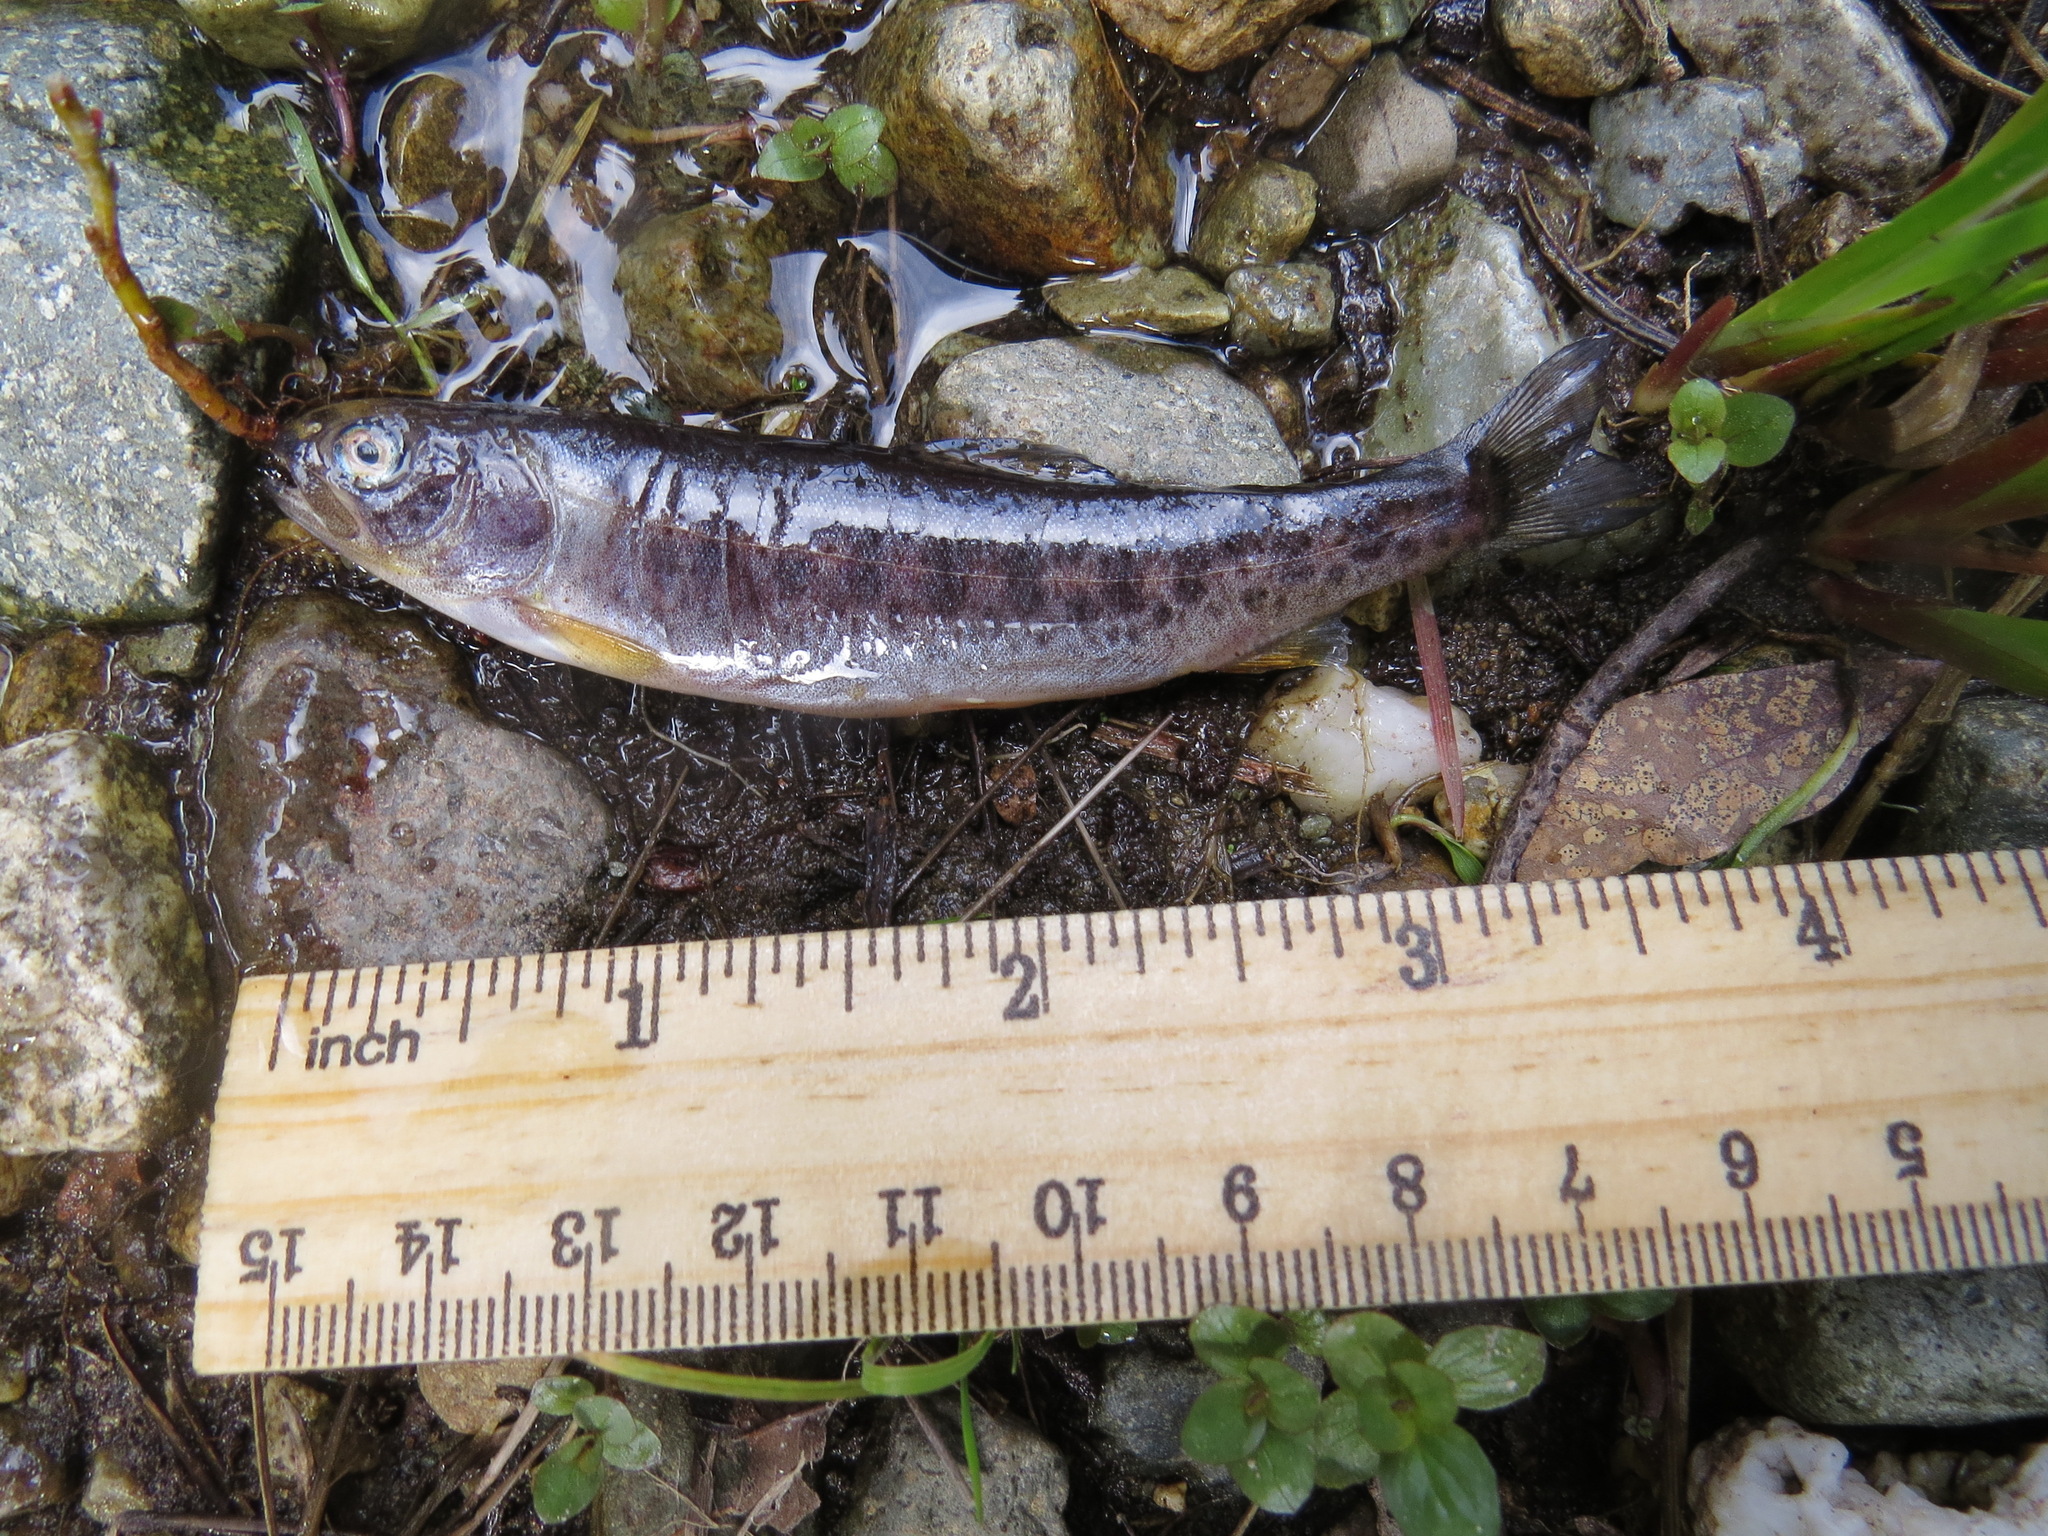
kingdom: Animalia
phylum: Chordata
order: Salmoniformes
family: Salmonidae
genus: Oncorhynchus
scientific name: Oncorhynchus mykiss
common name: Rainbow trout
